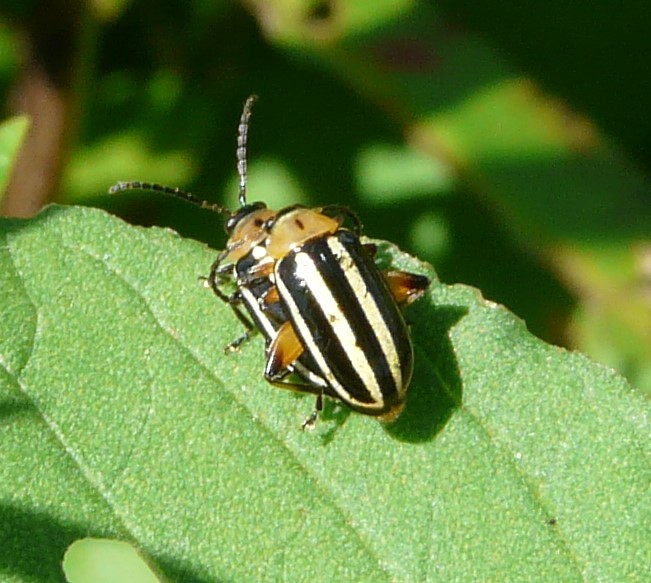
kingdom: Animalia
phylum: Arthropoda
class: Insecta
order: Coleoptera
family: Chrysomelidae
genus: Disonycha
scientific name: Disonycha glabrata
